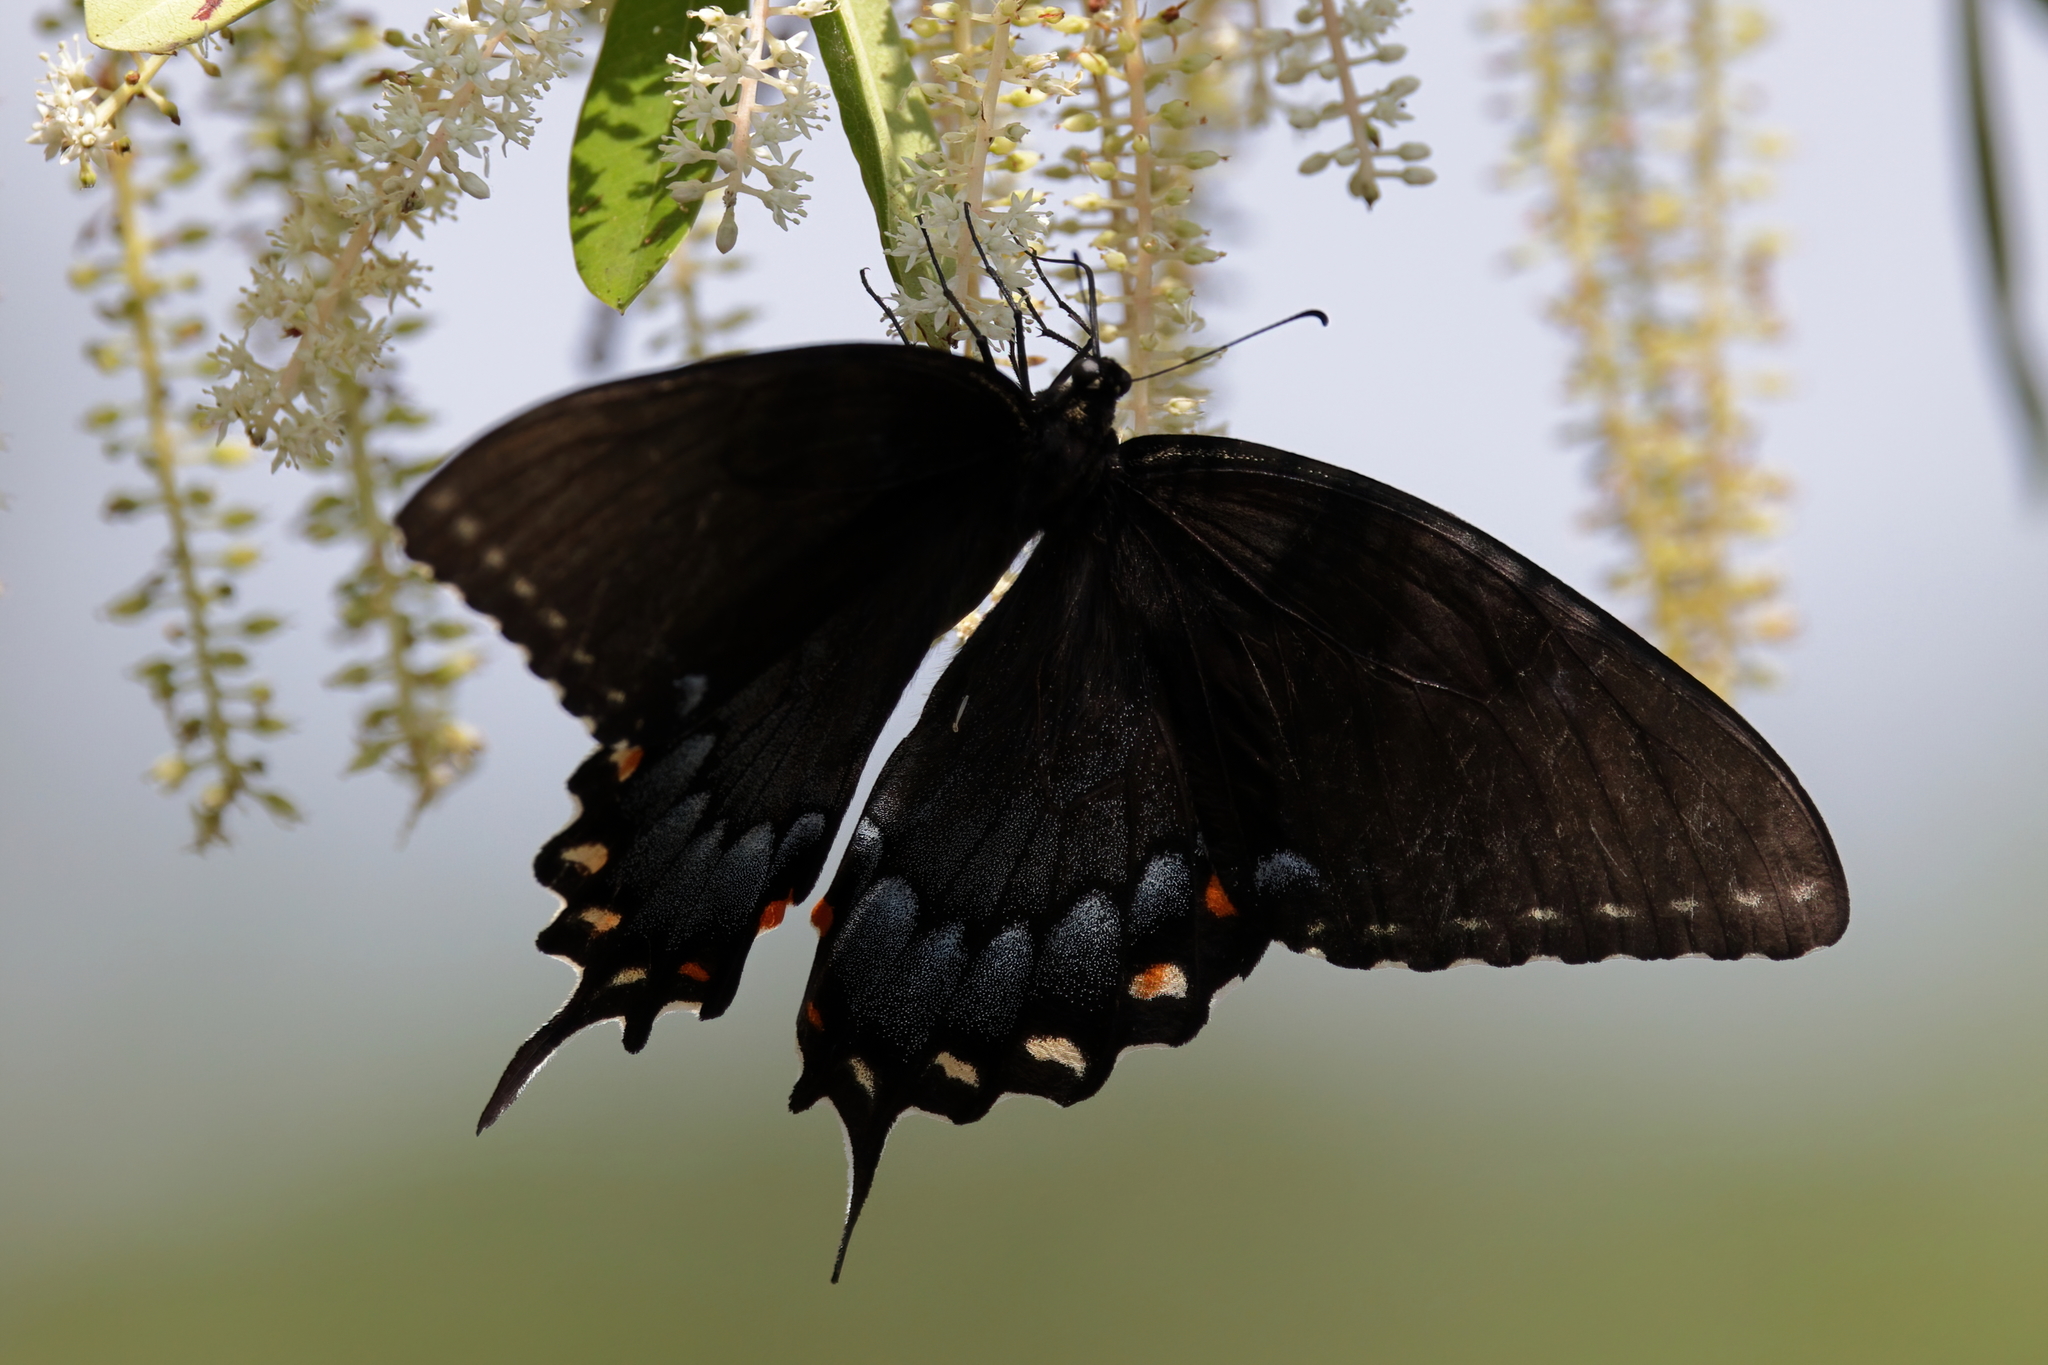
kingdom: Animalia
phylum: Arthropoda
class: Insecta
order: Lepidoptera
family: Papilionidae
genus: Papilio
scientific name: Papilio glaucus
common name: Tiger swallowtail
